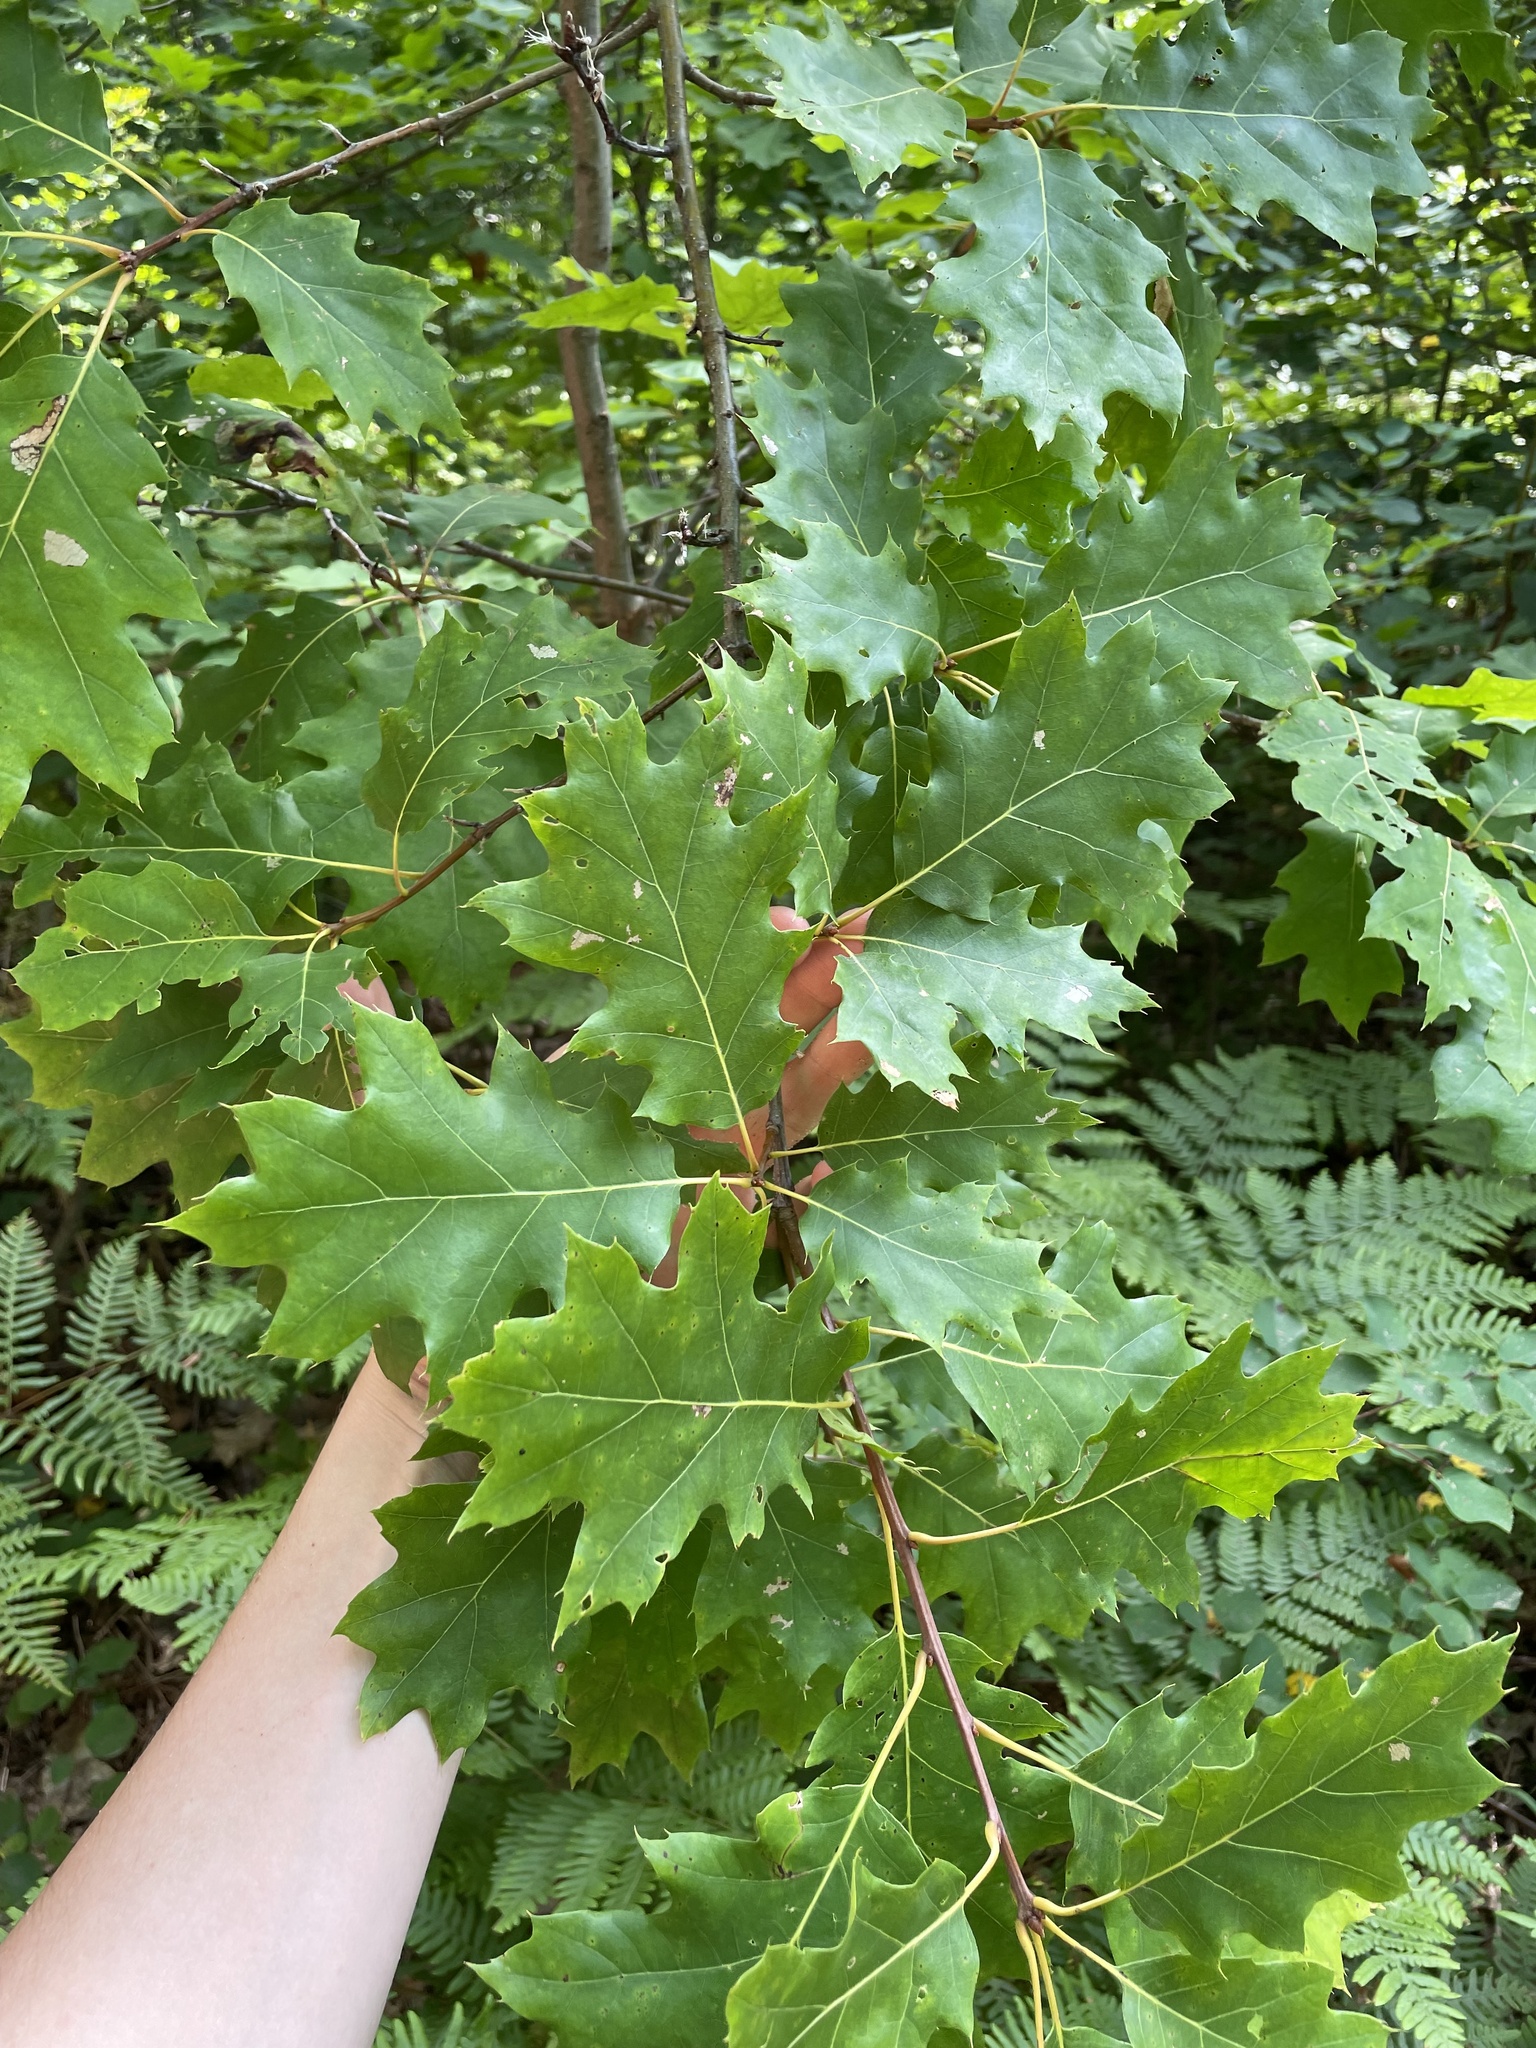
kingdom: Plantae
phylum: Tracheophyta
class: Magnoliopsida
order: Fagales
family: Fagaceae
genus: Quercus
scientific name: Quercus rubra
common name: Red oak
